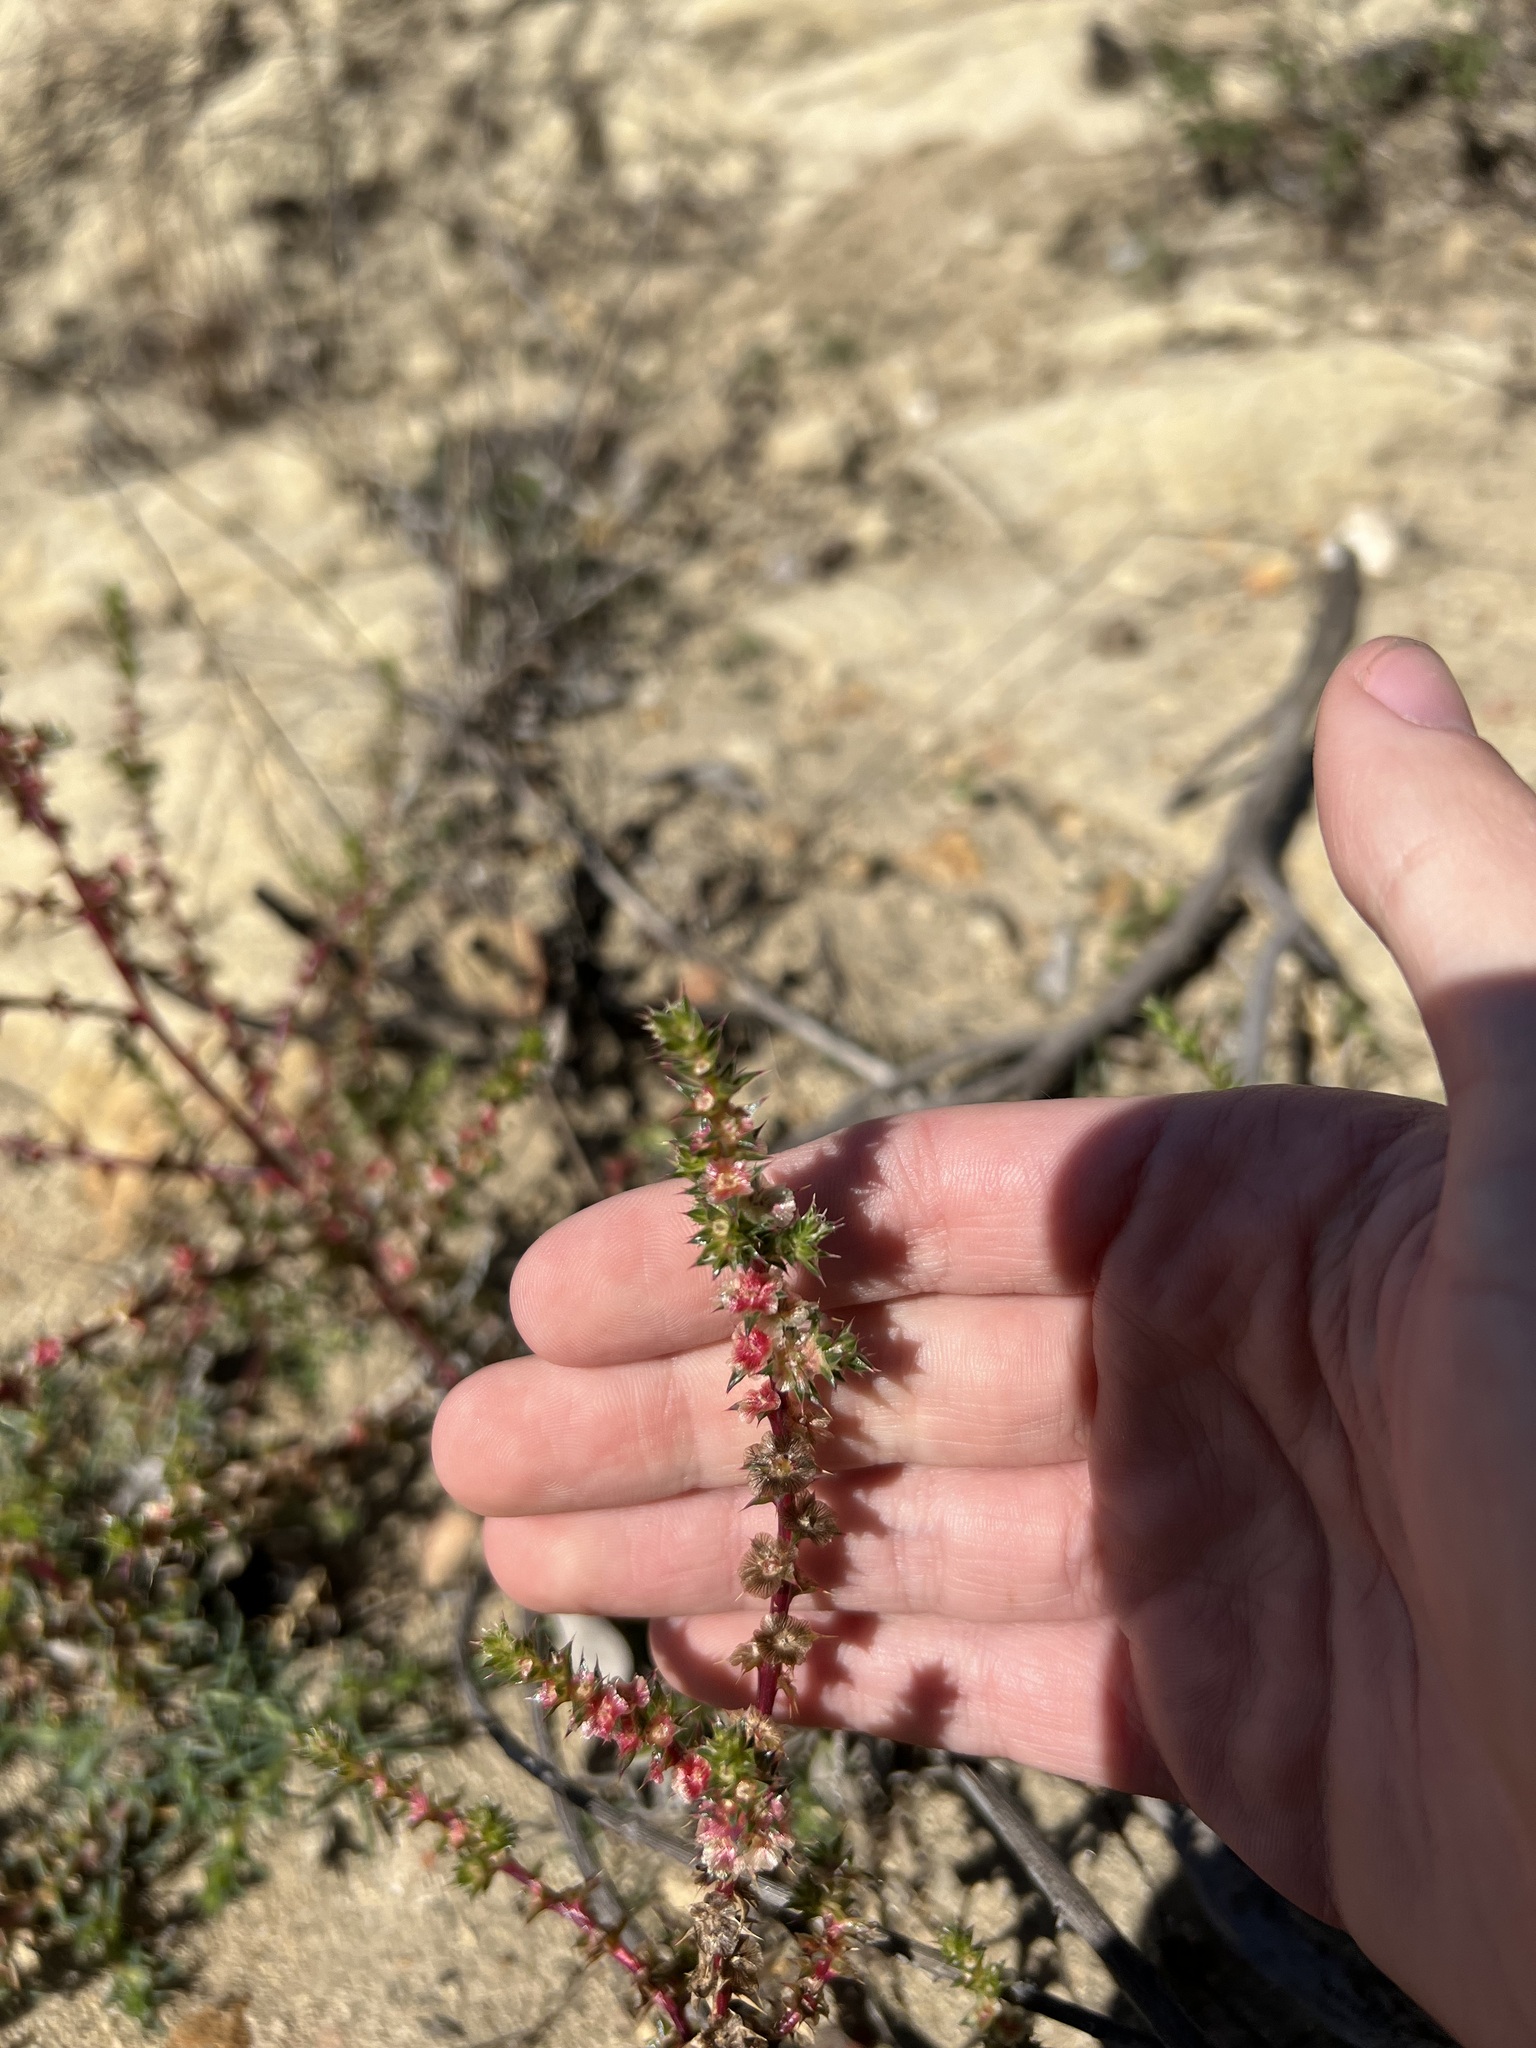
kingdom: Plantae
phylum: Tracheophyta
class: Magnoliopsida
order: Caryophyllales
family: Amaranthaceae
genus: Salsola
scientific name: Salsola australis
